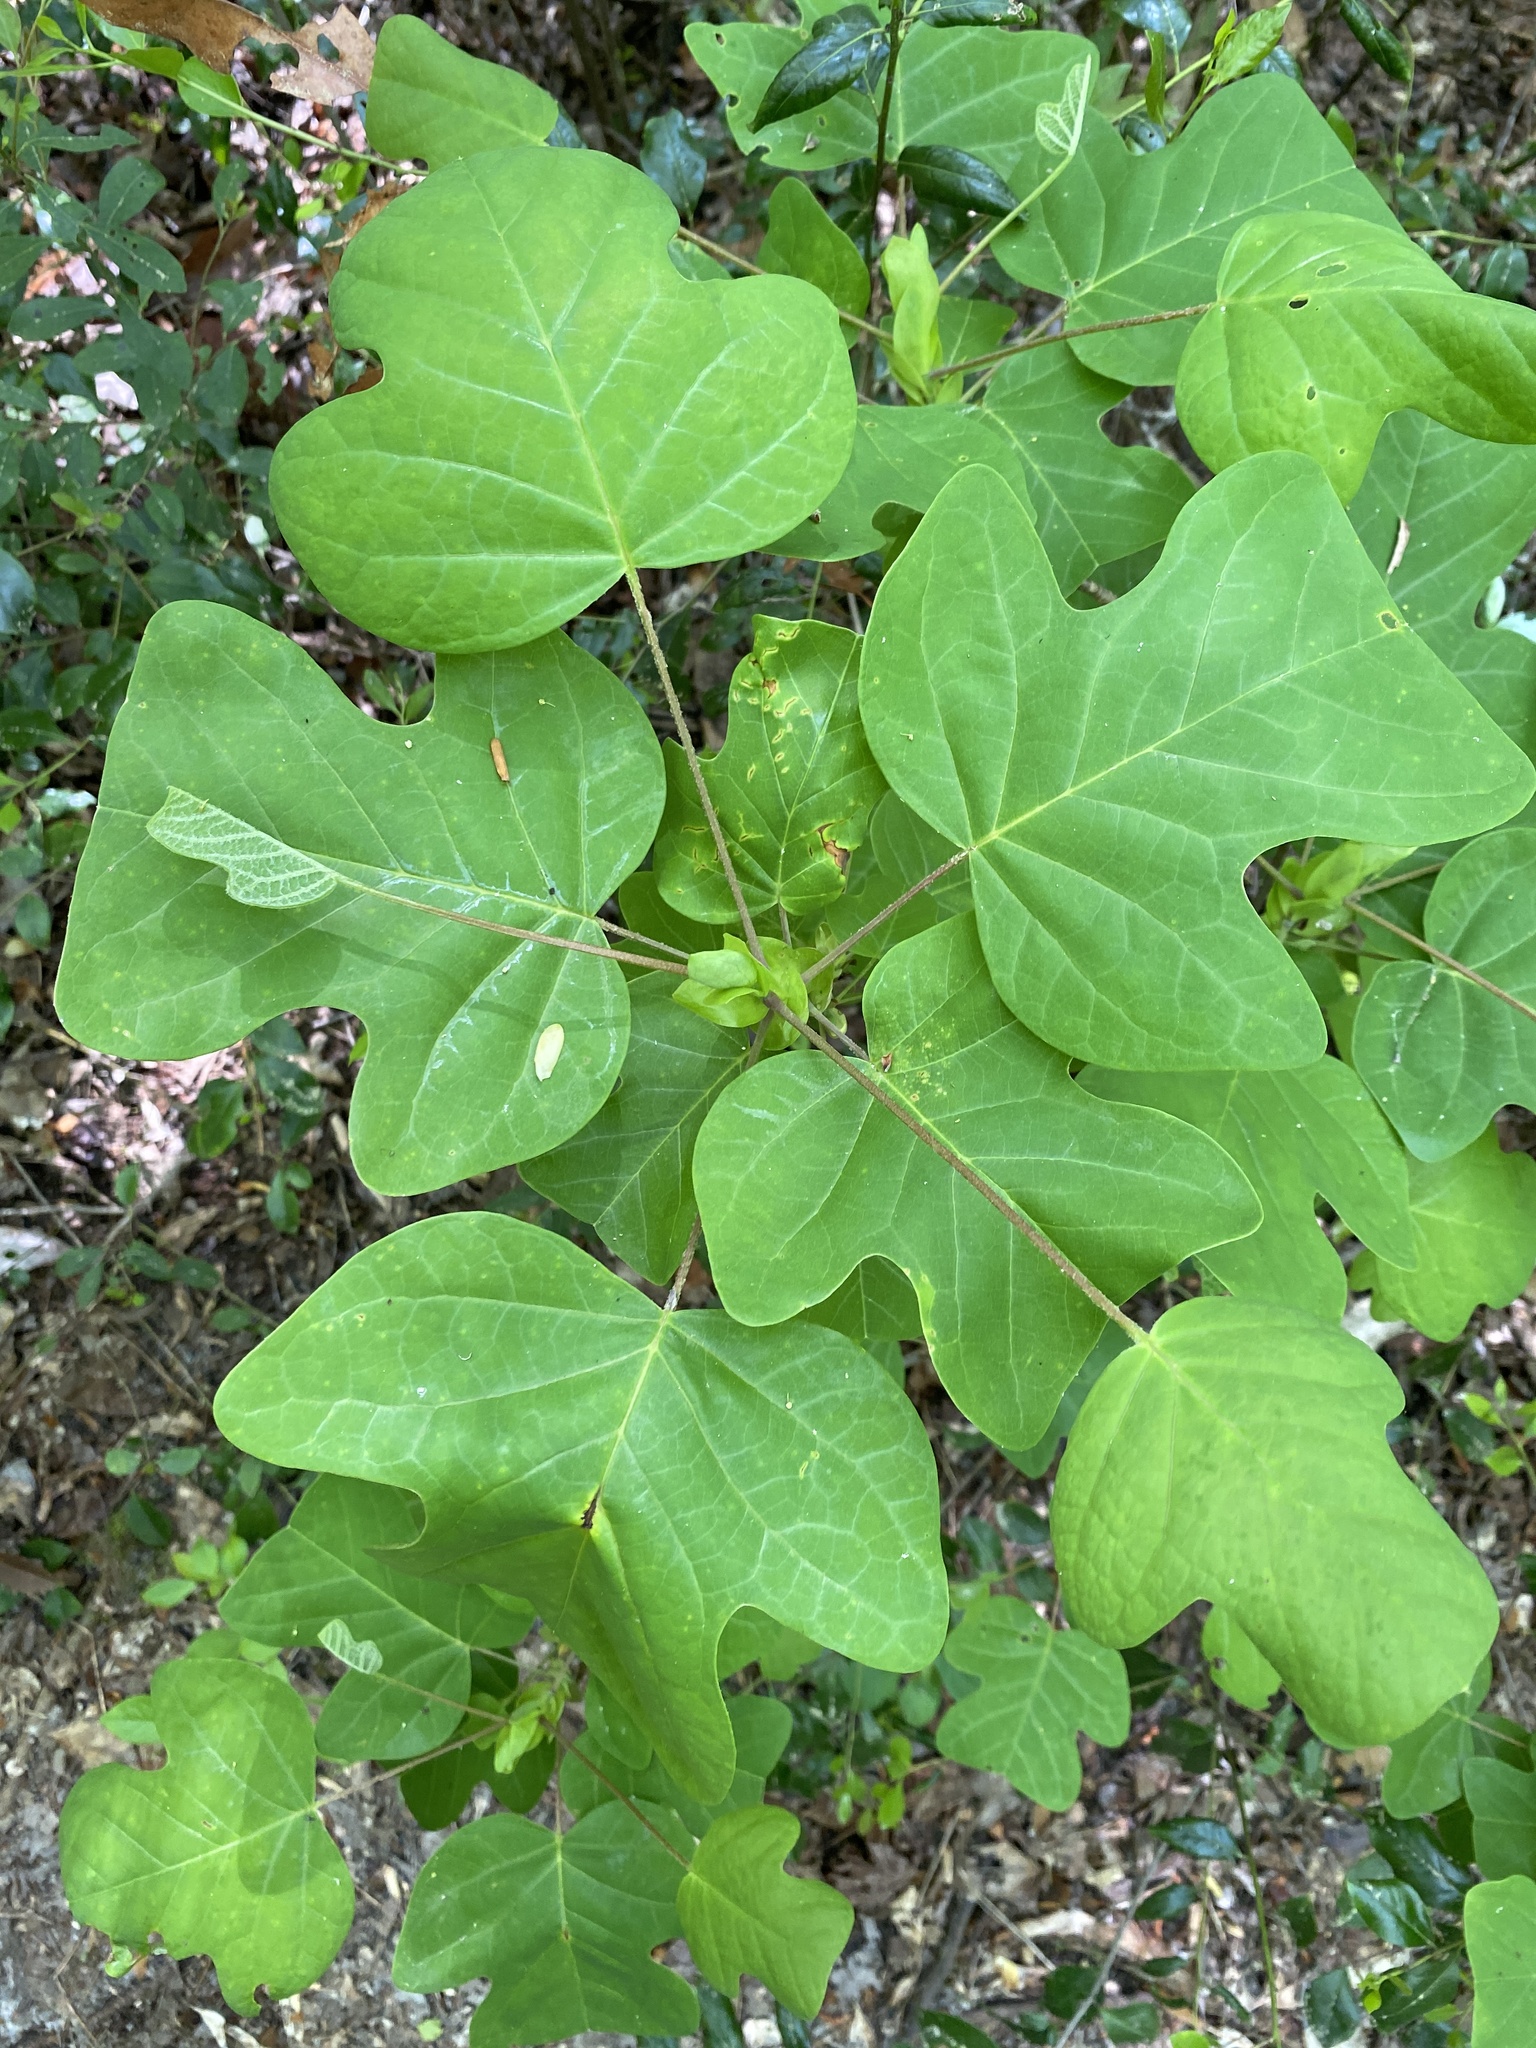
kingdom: Plantae
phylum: Tracheophyta
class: Magnoliopsida
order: Magnoliales
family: Magnoliaceae
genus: Liriodendron
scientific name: Liriodendron tulipifera
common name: Tulip tree
